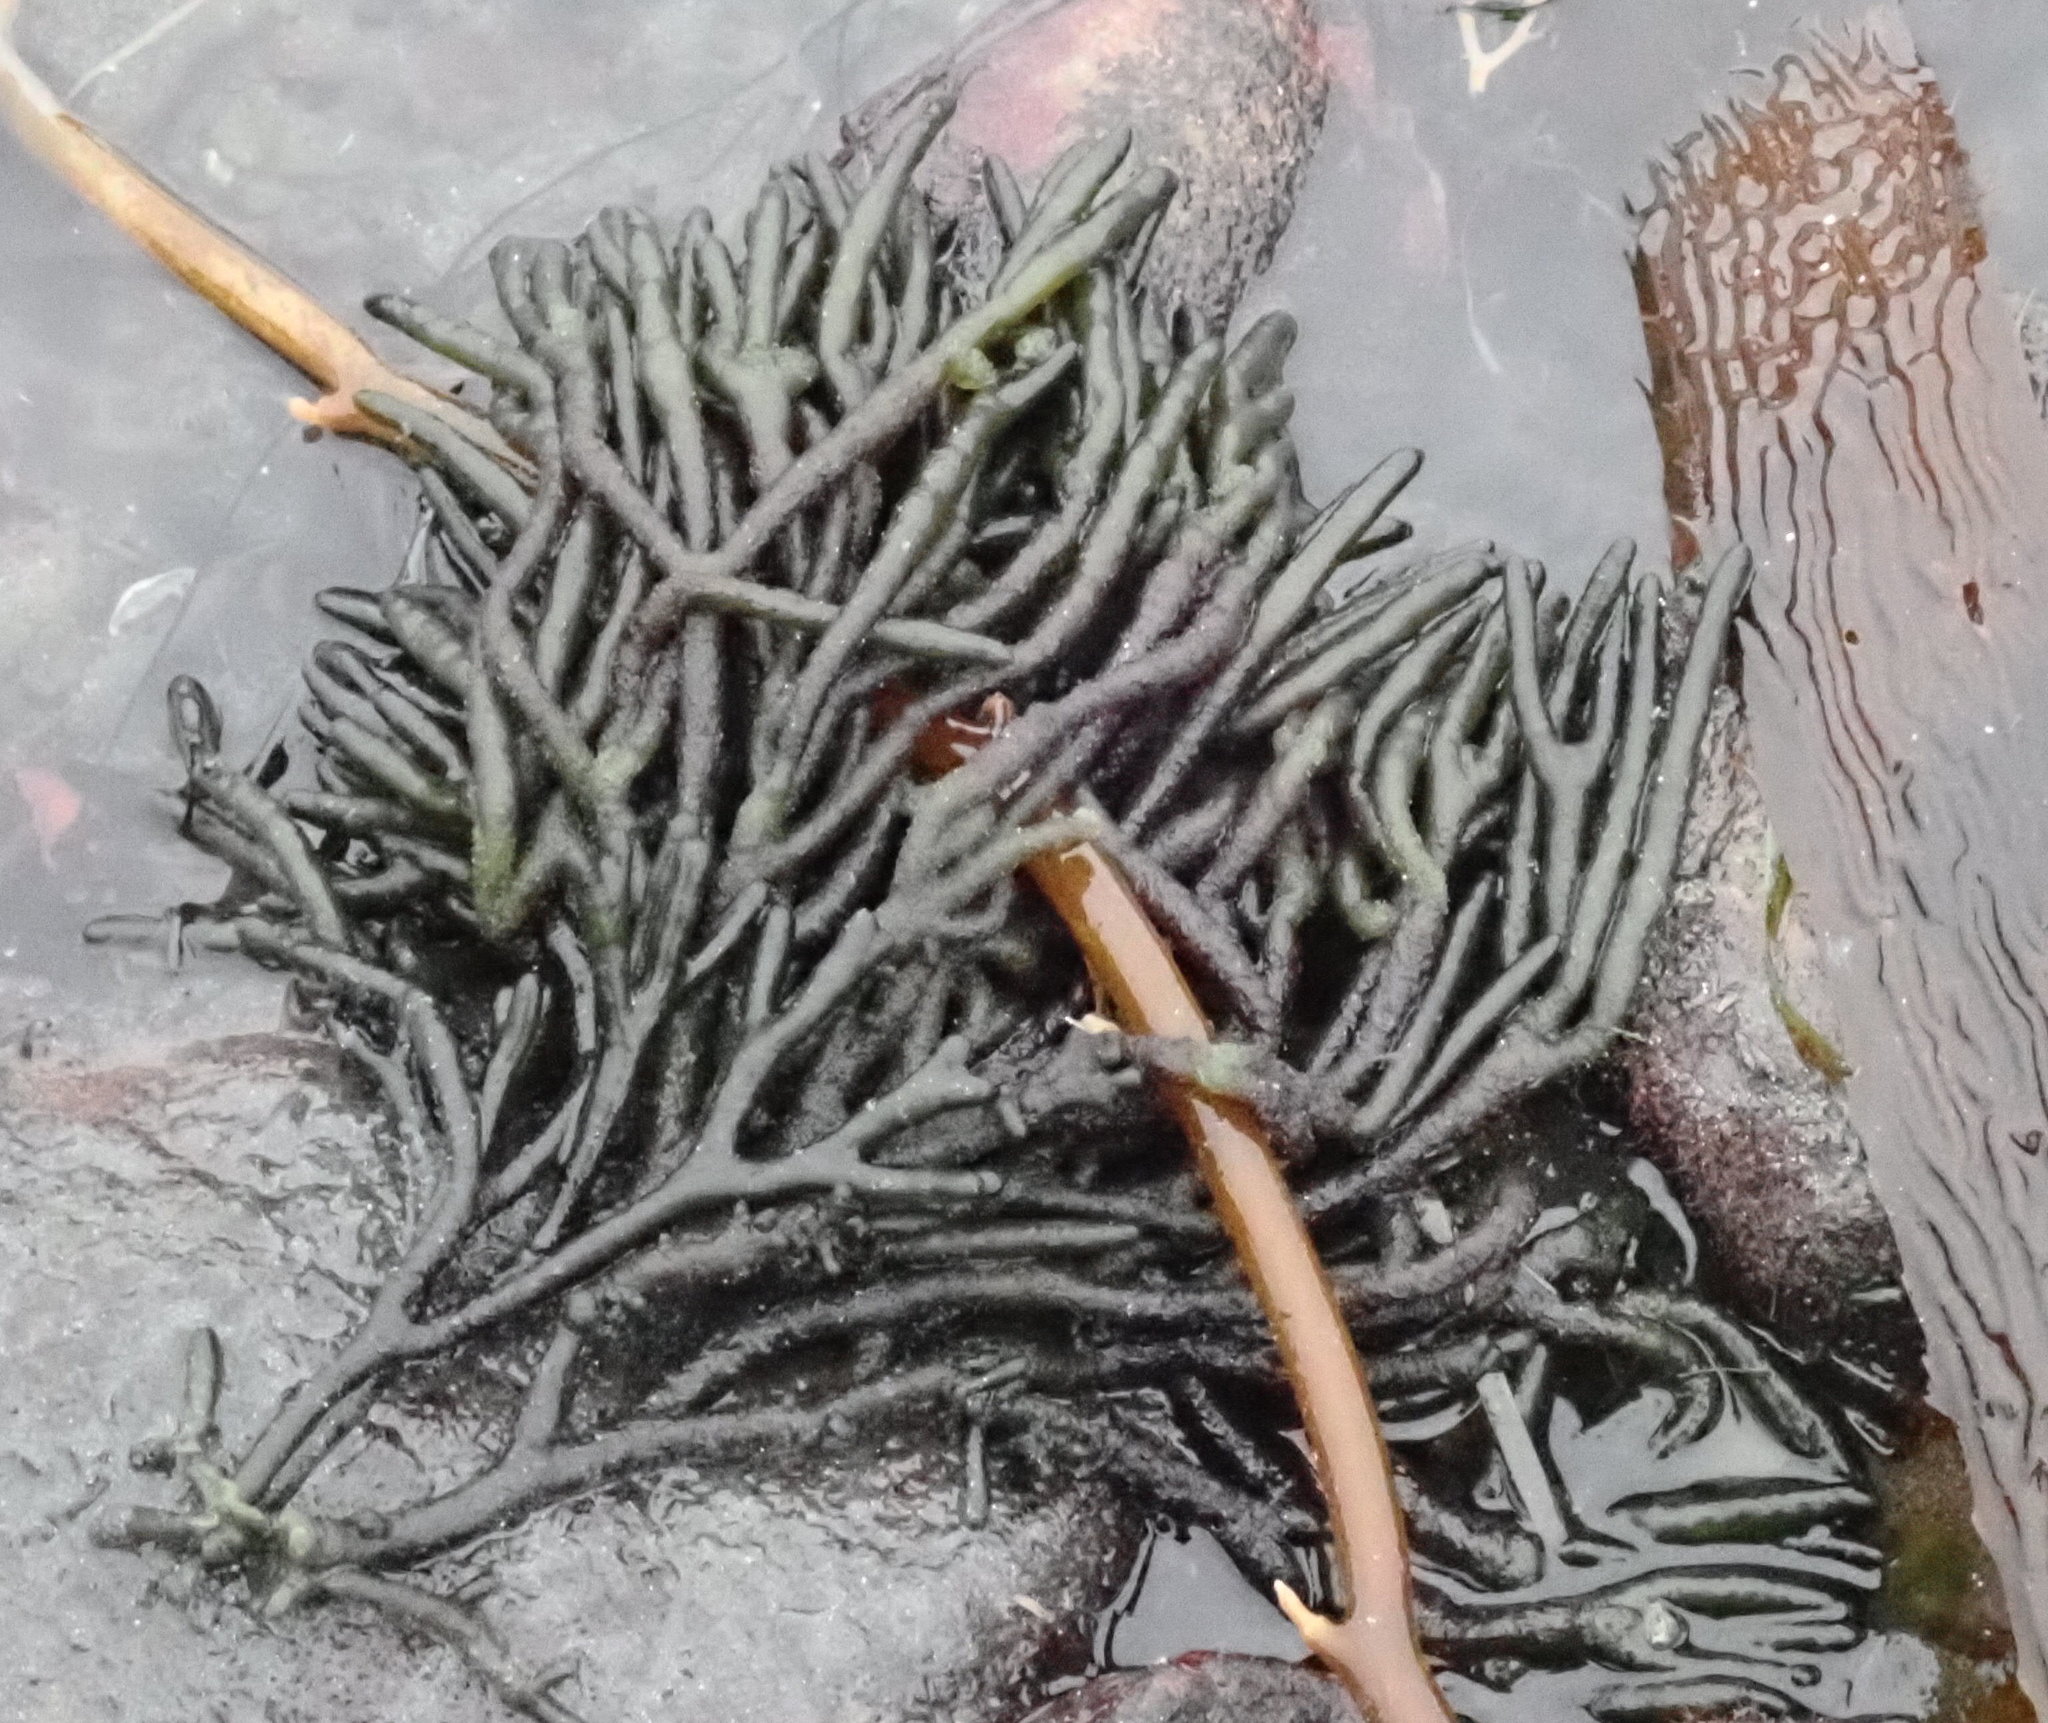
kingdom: Plantae
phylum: Chlorophyta
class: Ulvophyceae
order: Bryopsidales
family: Codiaceae
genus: Codium
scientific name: Codium fragile
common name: Dead man's fingers
